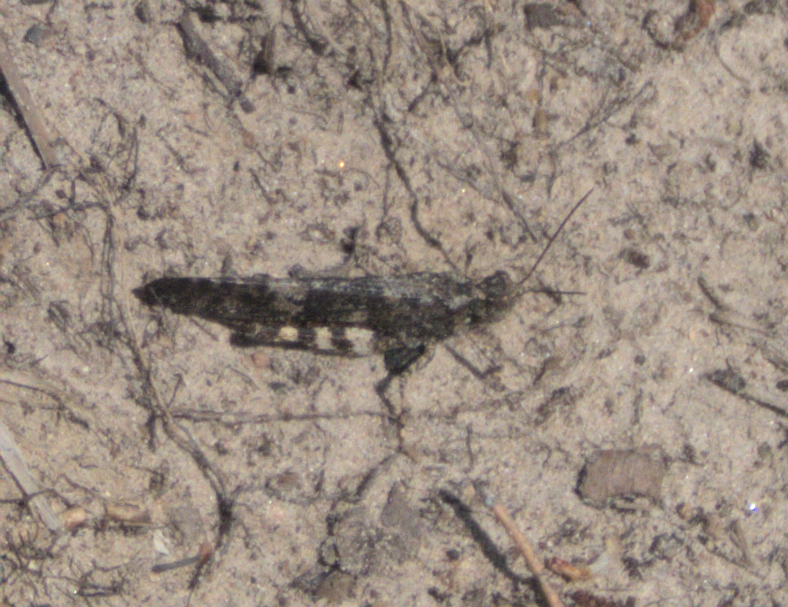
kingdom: Animalia
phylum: Arthropoda
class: Insecta
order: Orthoptera
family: Acrididae
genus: Trimerotropis
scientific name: Trimerotropis verruculata
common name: Crackling forest grasshopper
